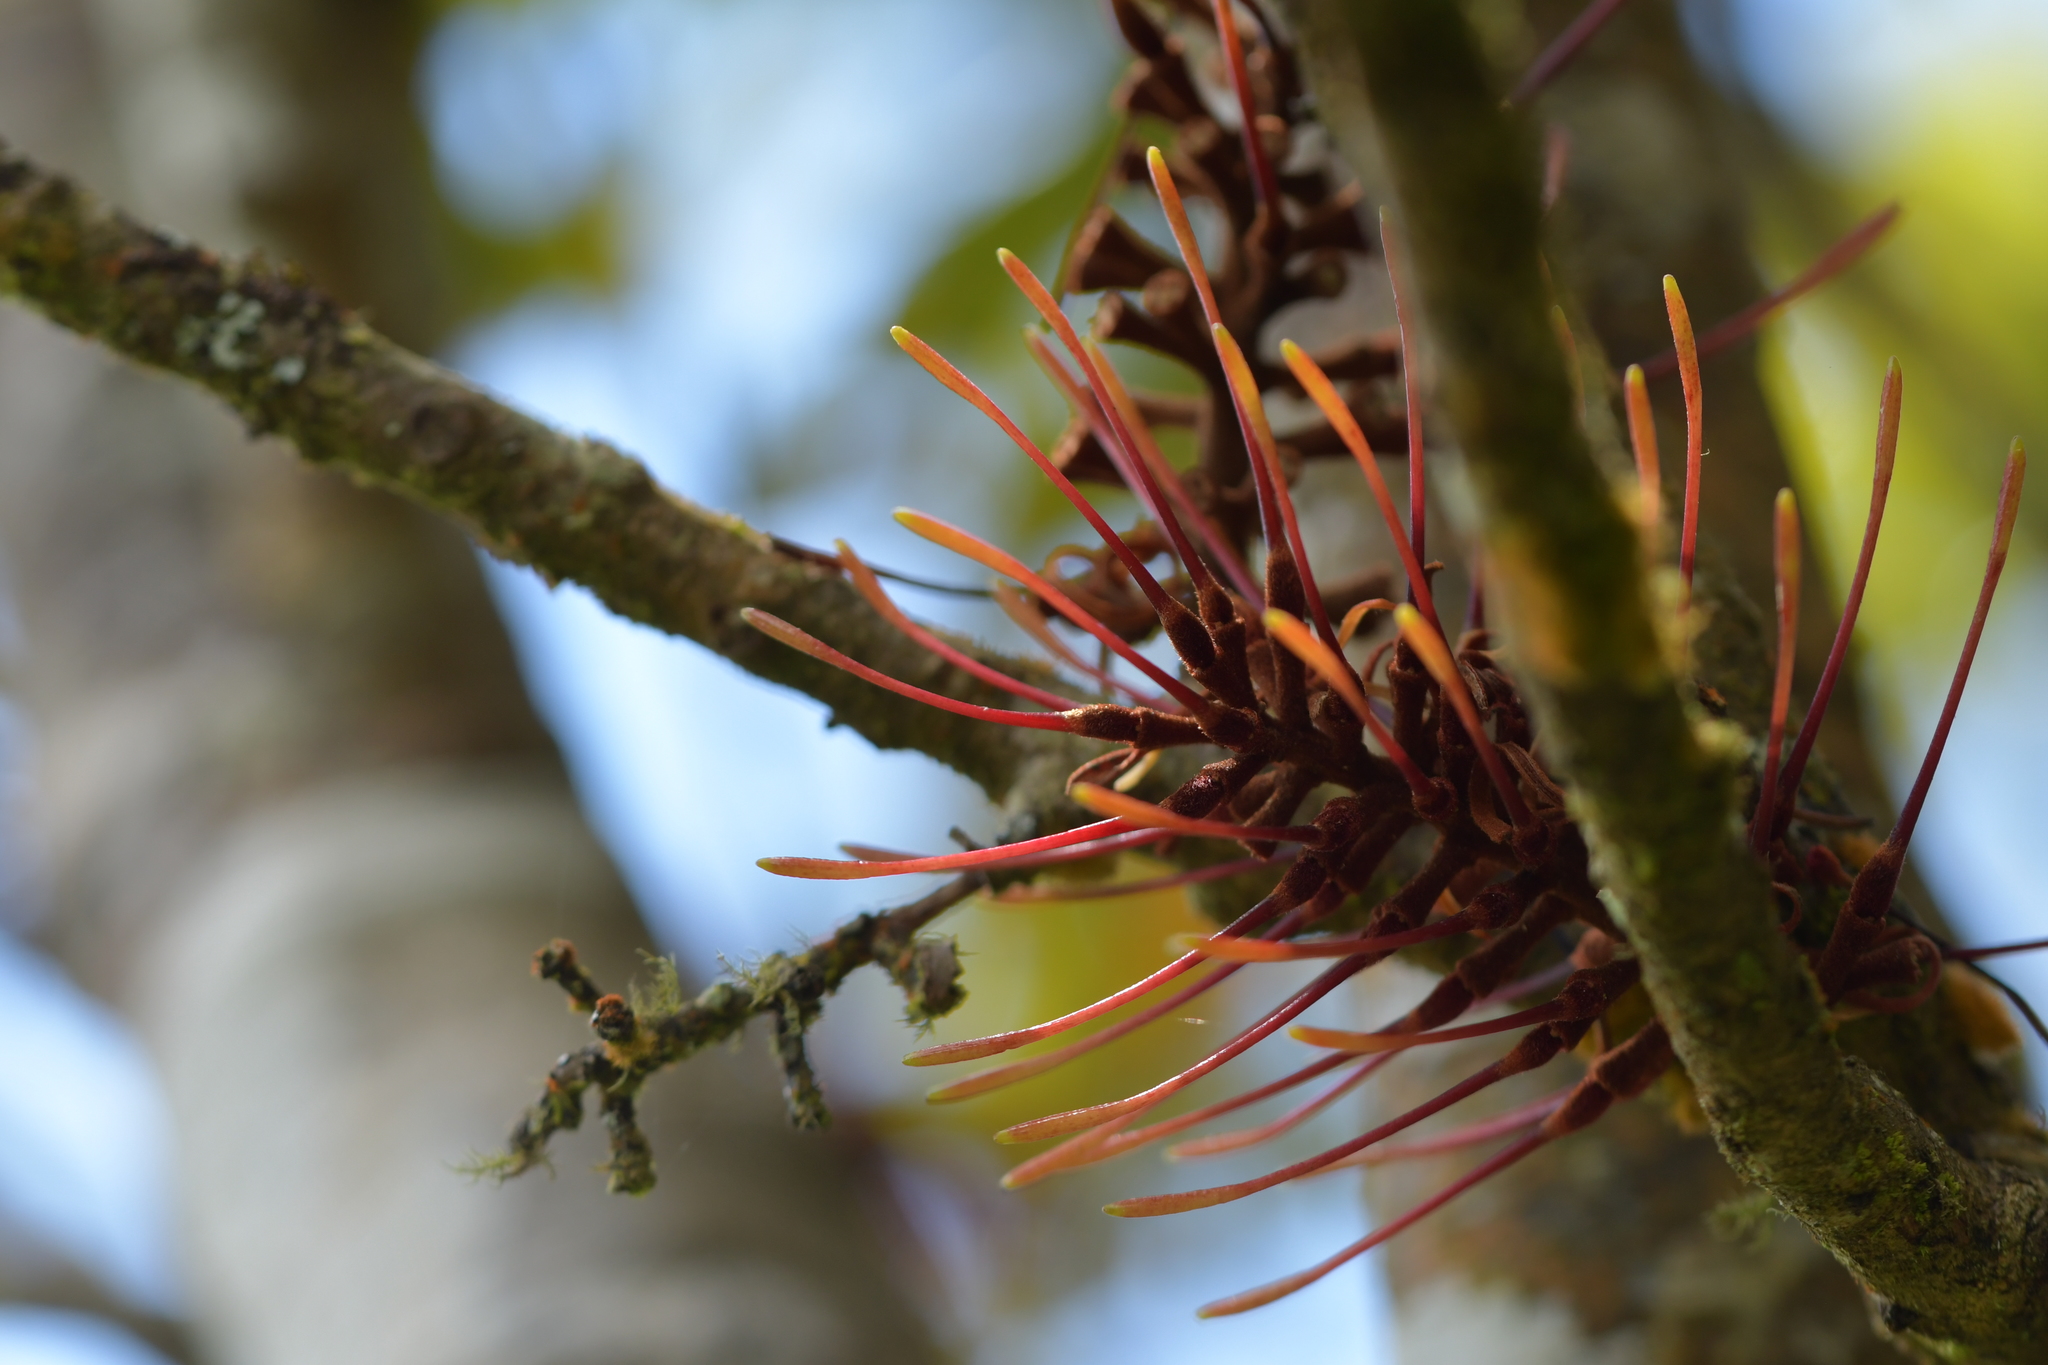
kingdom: Plantae
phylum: Tracheophyta
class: Magnoliopsida
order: Proteales
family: Proteaceae
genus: Knightia
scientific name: Knightia excelsa
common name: New zealand-honeysuckle
